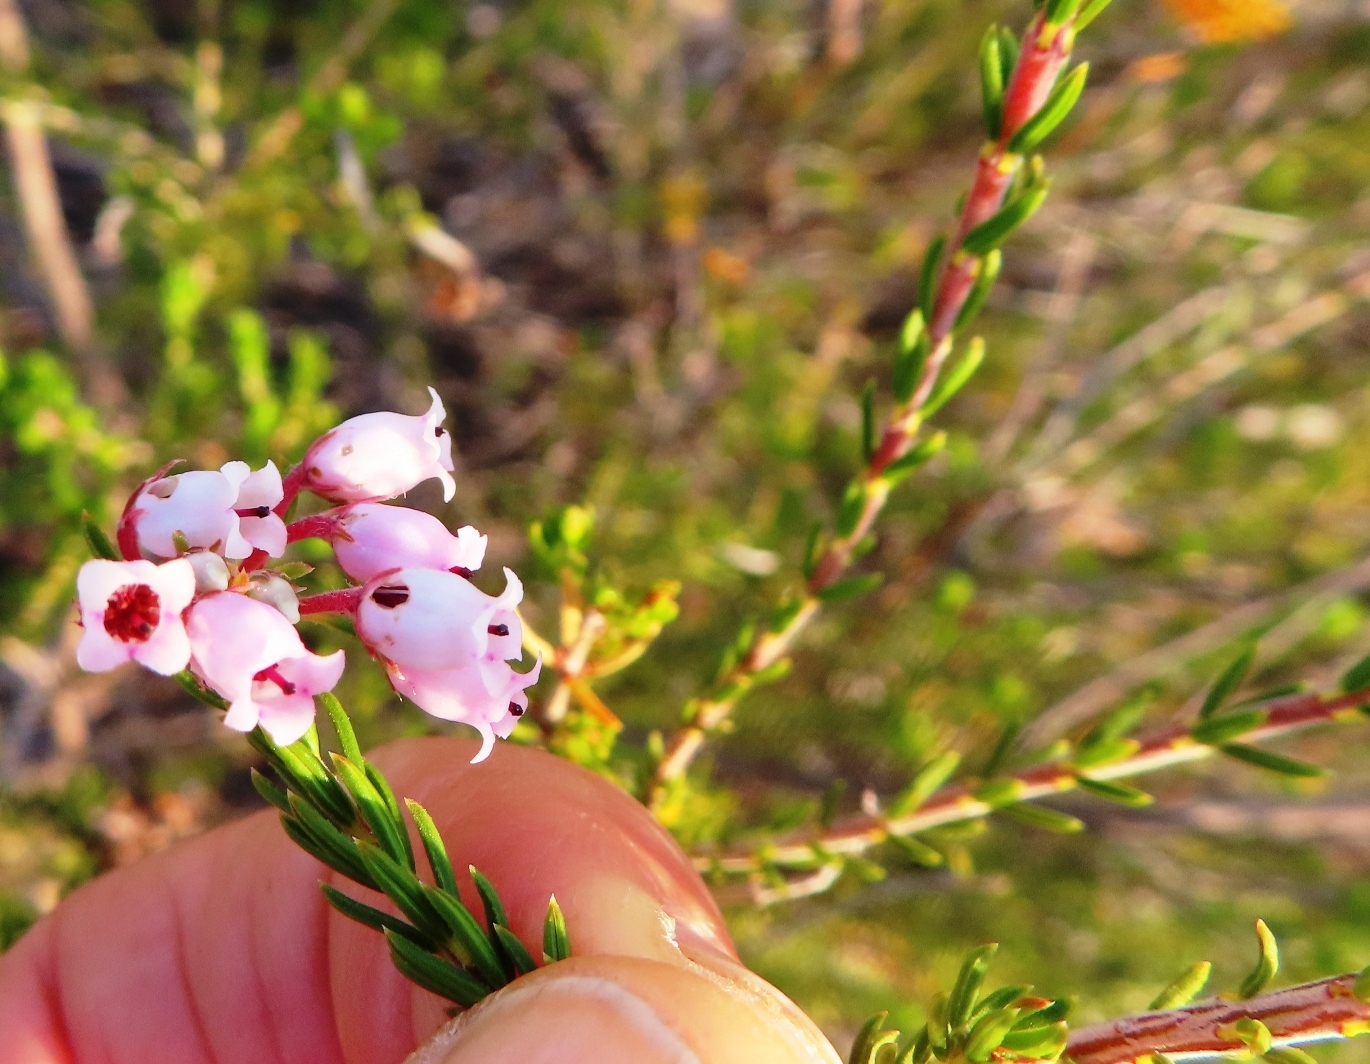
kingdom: Plantae
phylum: Tracheophyta
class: Magnoliopsida
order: Ericales
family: Ericaceae
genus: Erica
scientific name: Erica verecunda
